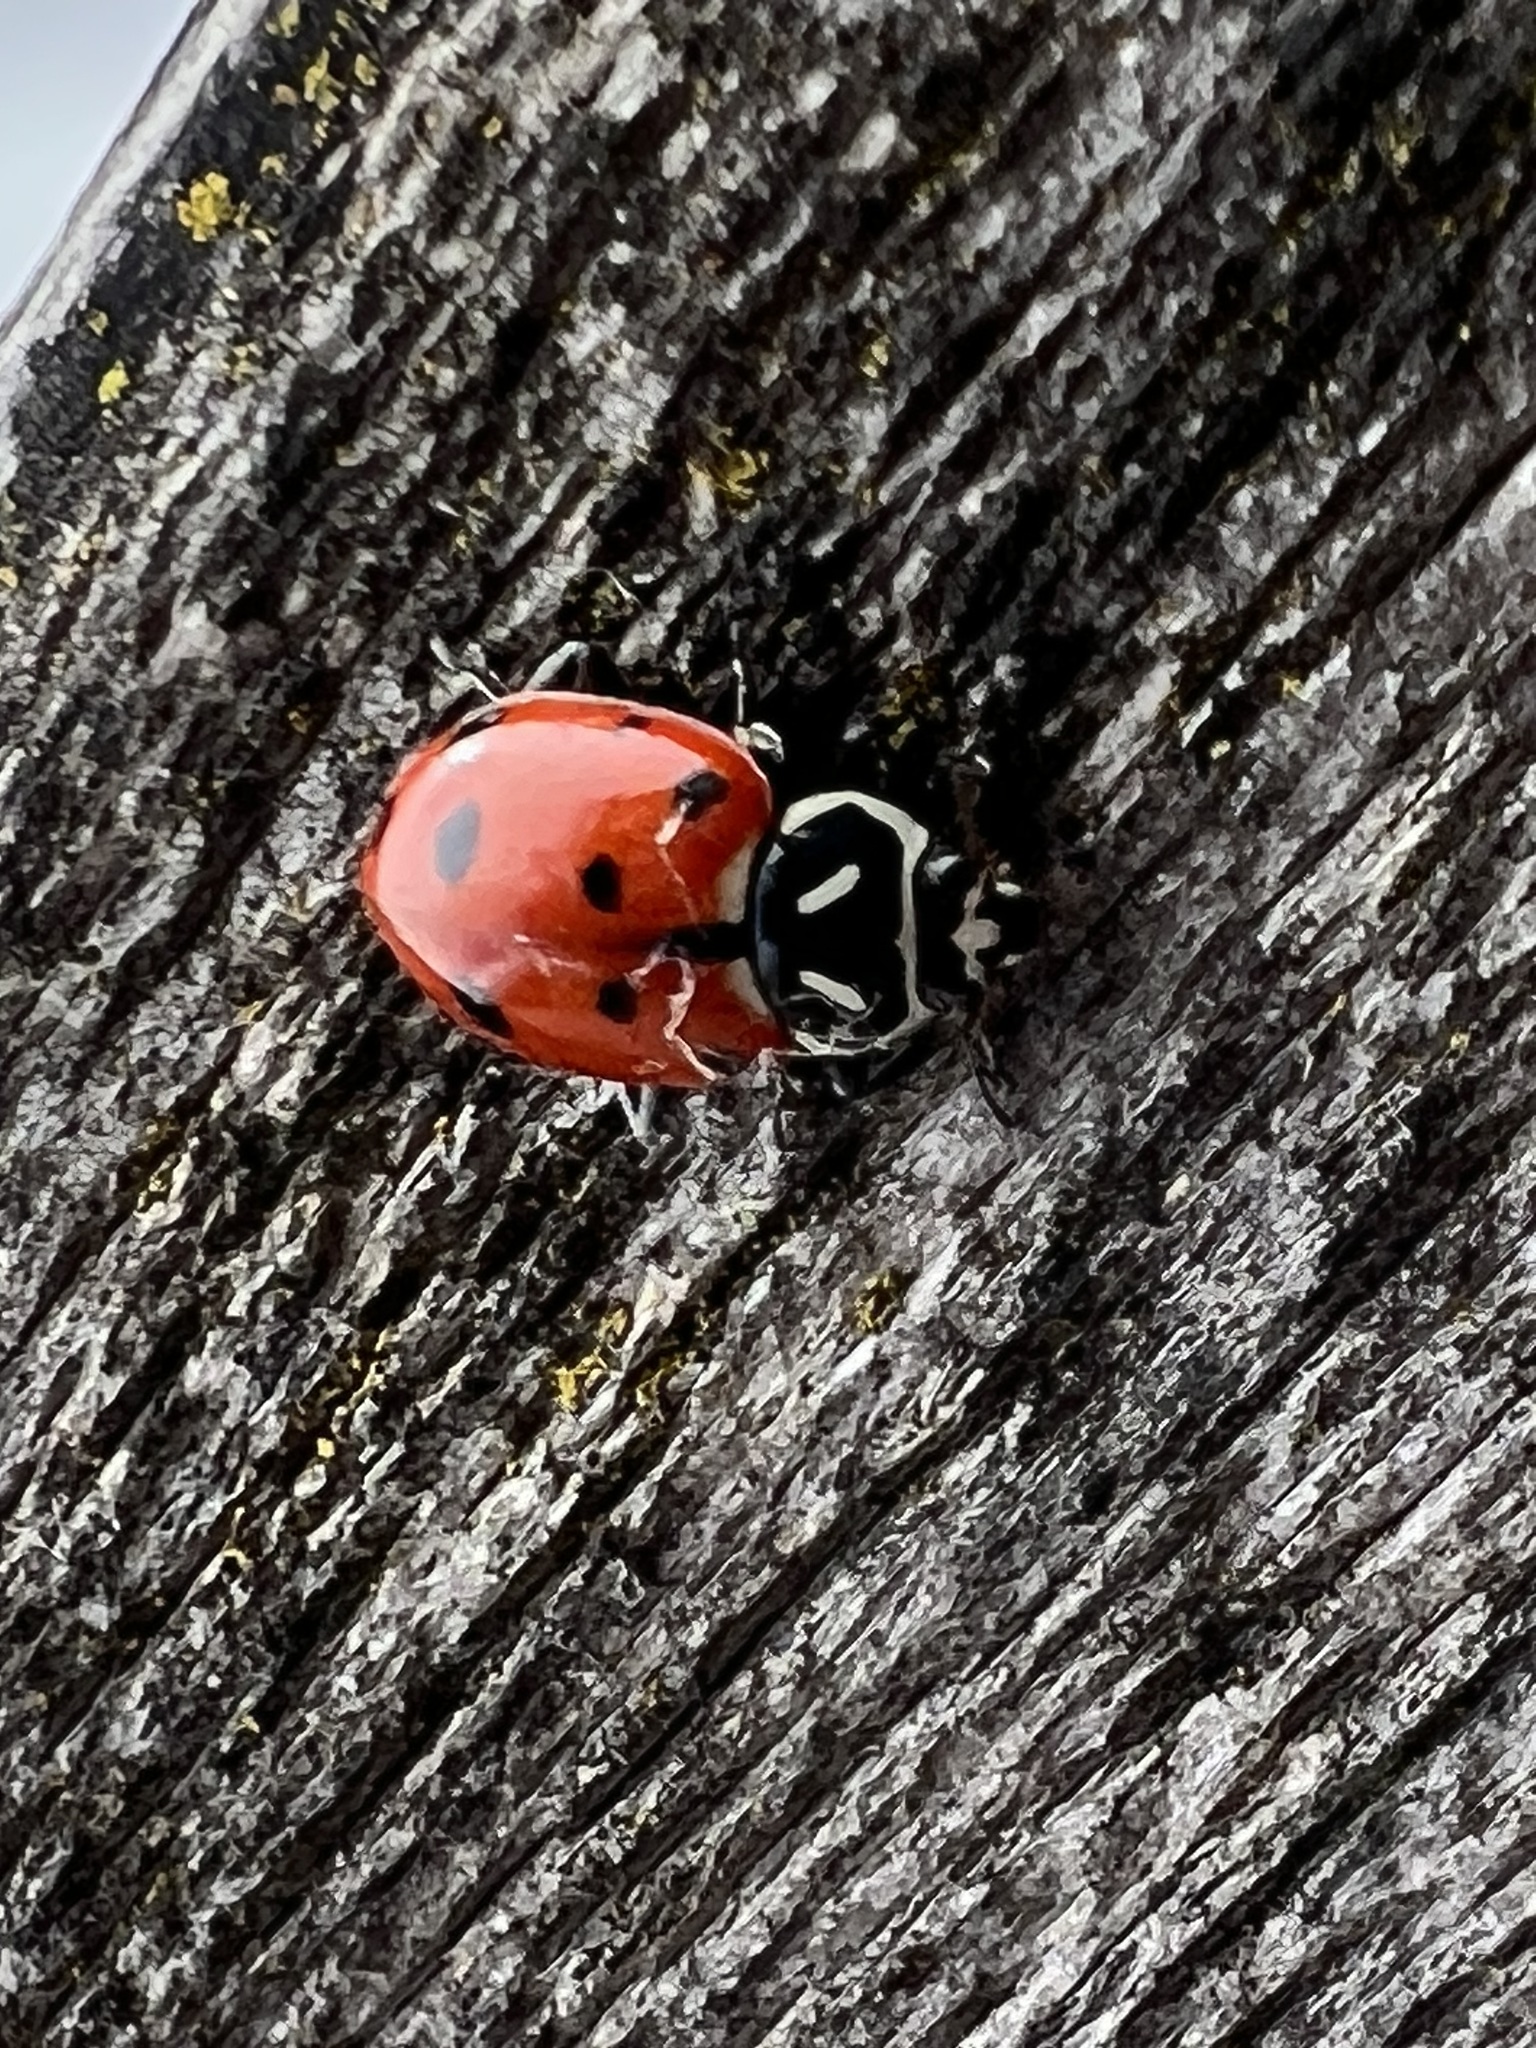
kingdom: Animalia
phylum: Arthropoda
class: Insecta
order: Coleoptera
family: Coccinellidae
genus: Hippodamia
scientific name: Hippodamia convergens
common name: Convergent lady beetle
